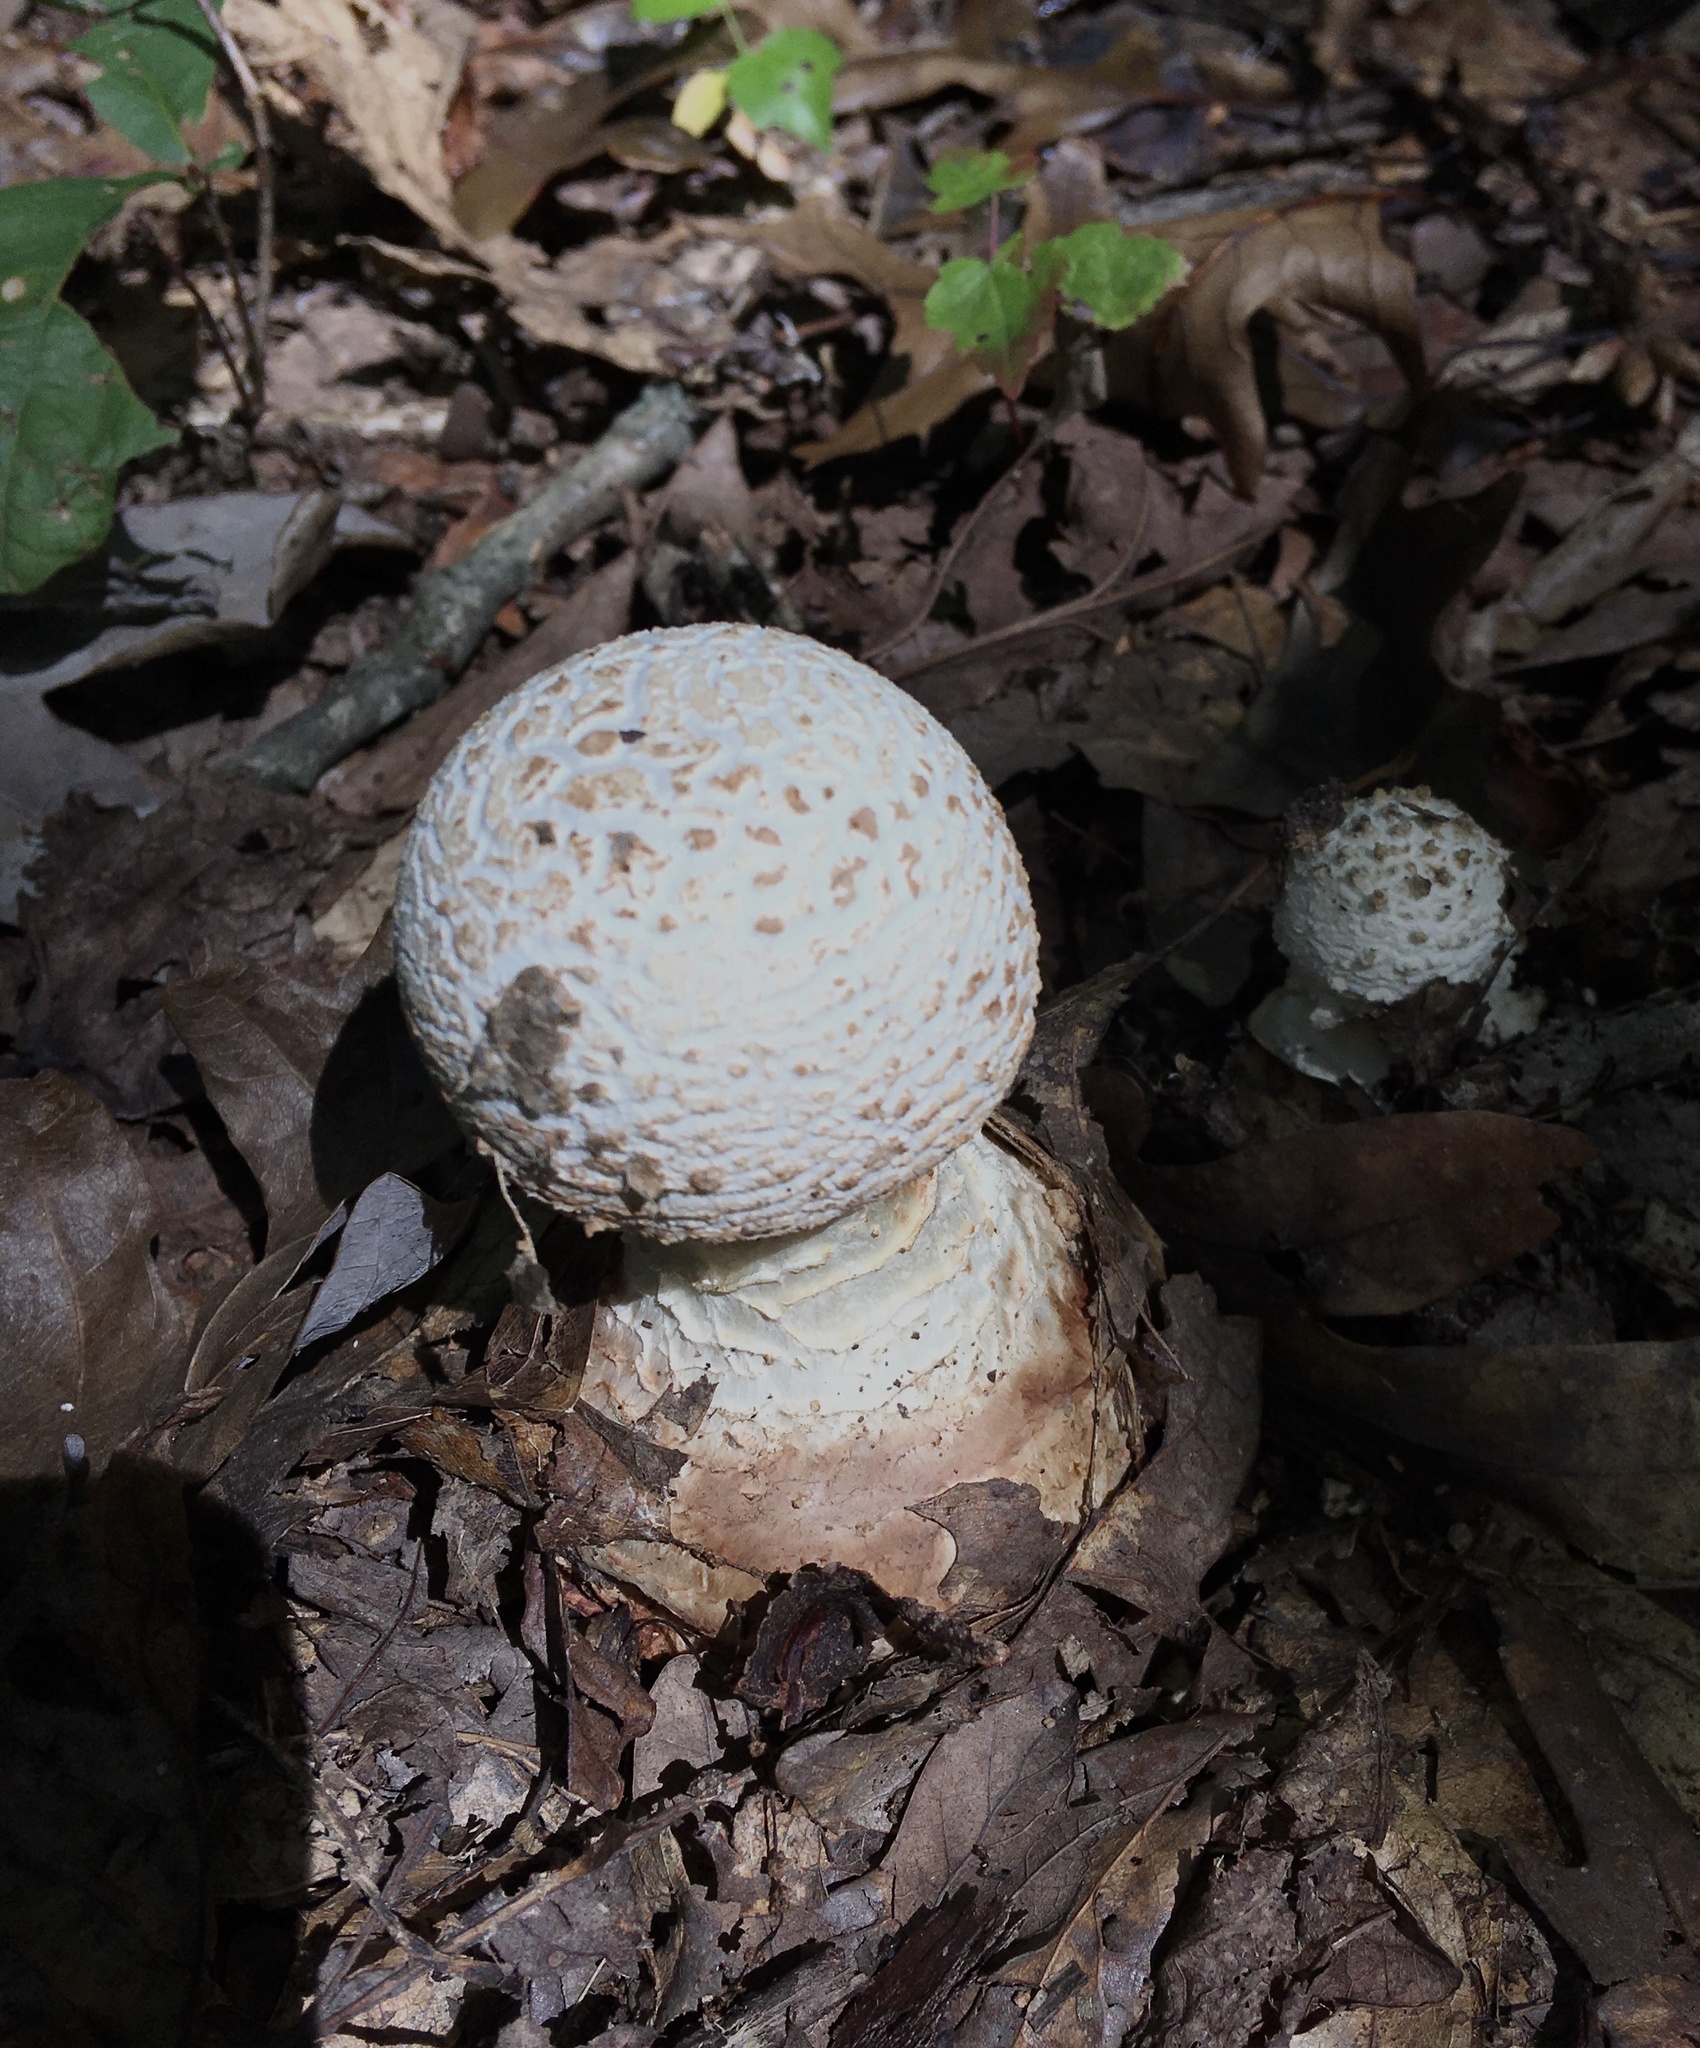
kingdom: Fungi
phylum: Basidiomycota
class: Agaricomycetes
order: Agaricales
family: Amanitaceae
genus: Amanita
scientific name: Amanita cokeri
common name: Coker's amanita
